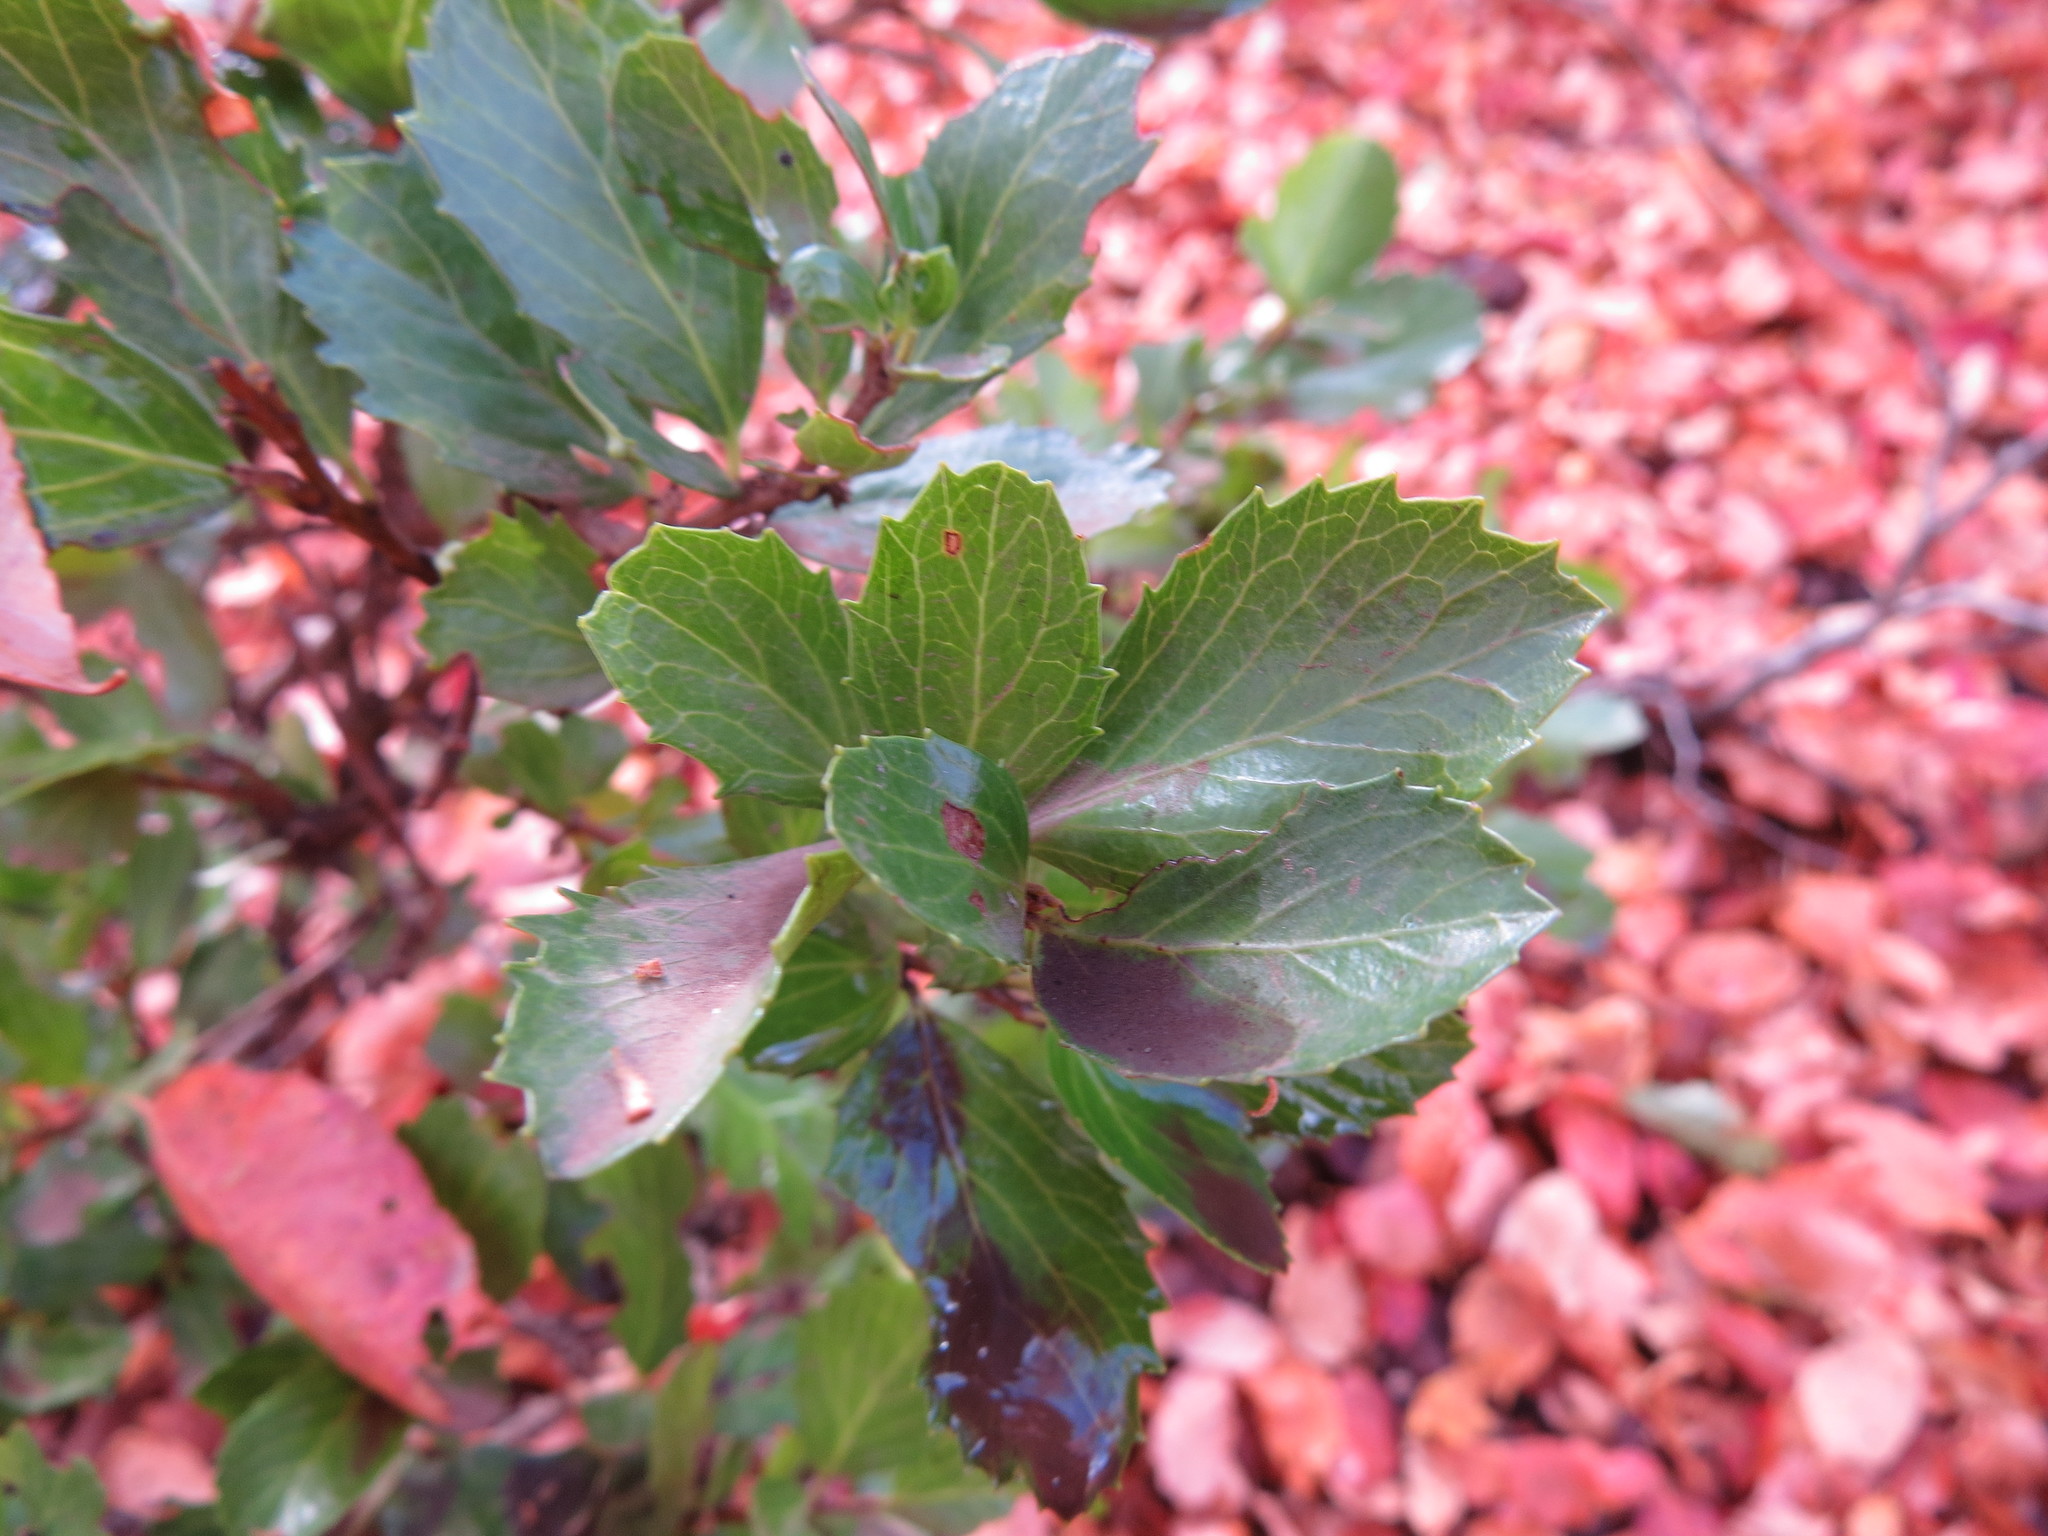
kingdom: Plantae
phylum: Tracheophyta
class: Magnoliopsida
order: Malpighiales
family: Salicaceae
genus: Azara
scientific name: Azara alpina
